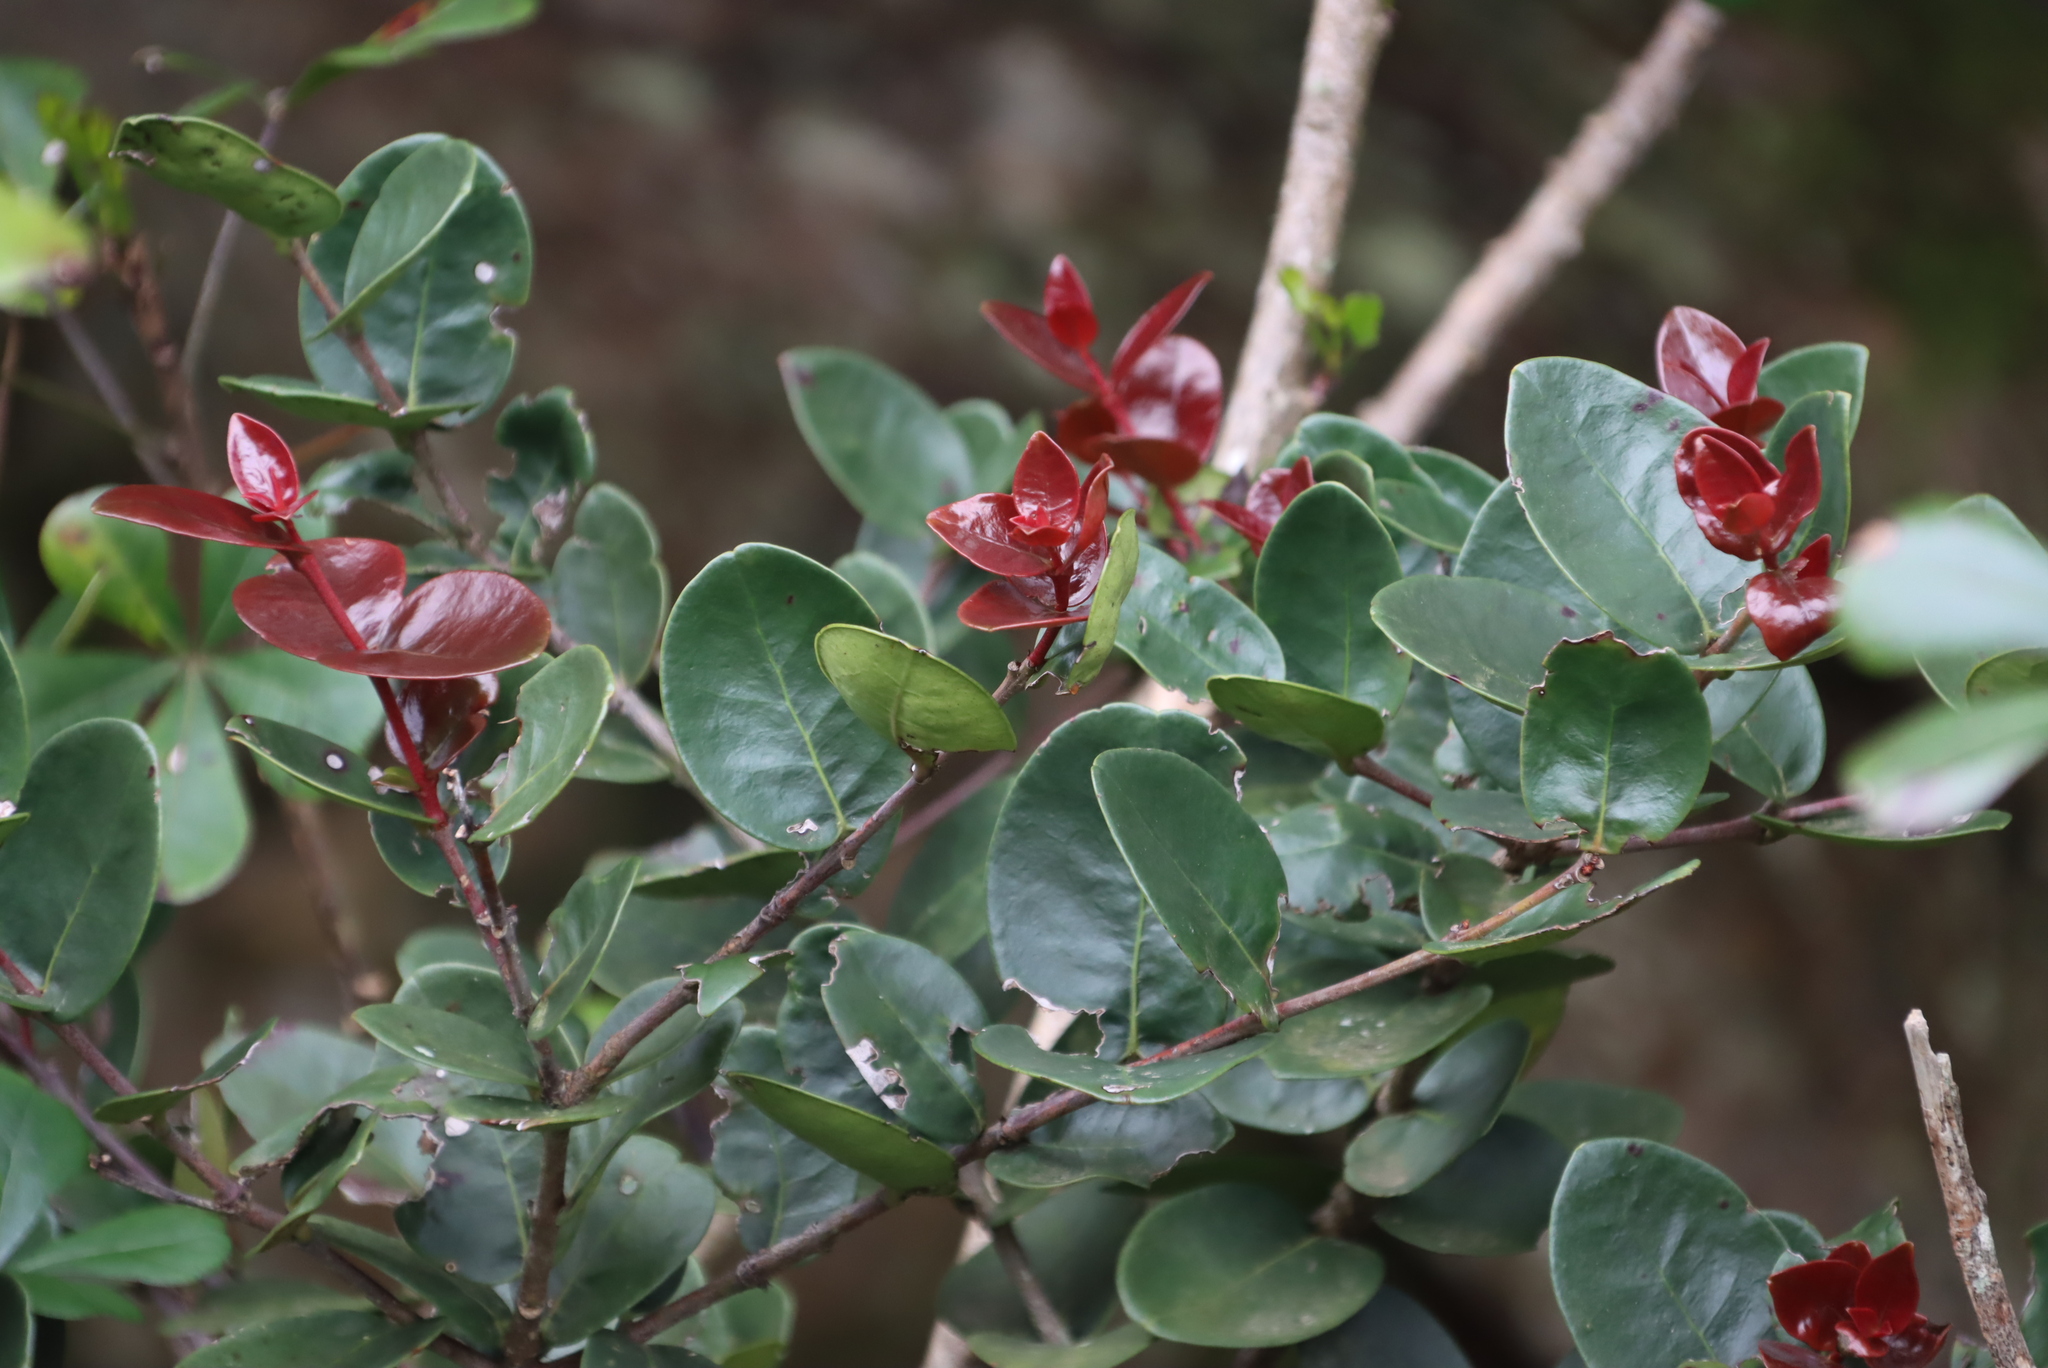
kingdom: Plantae
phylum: Tracheophyta
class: Magnoliopsida
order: Celastrales
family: Celastraceae
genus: Maurocenia
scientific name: Maurocenia frangula
